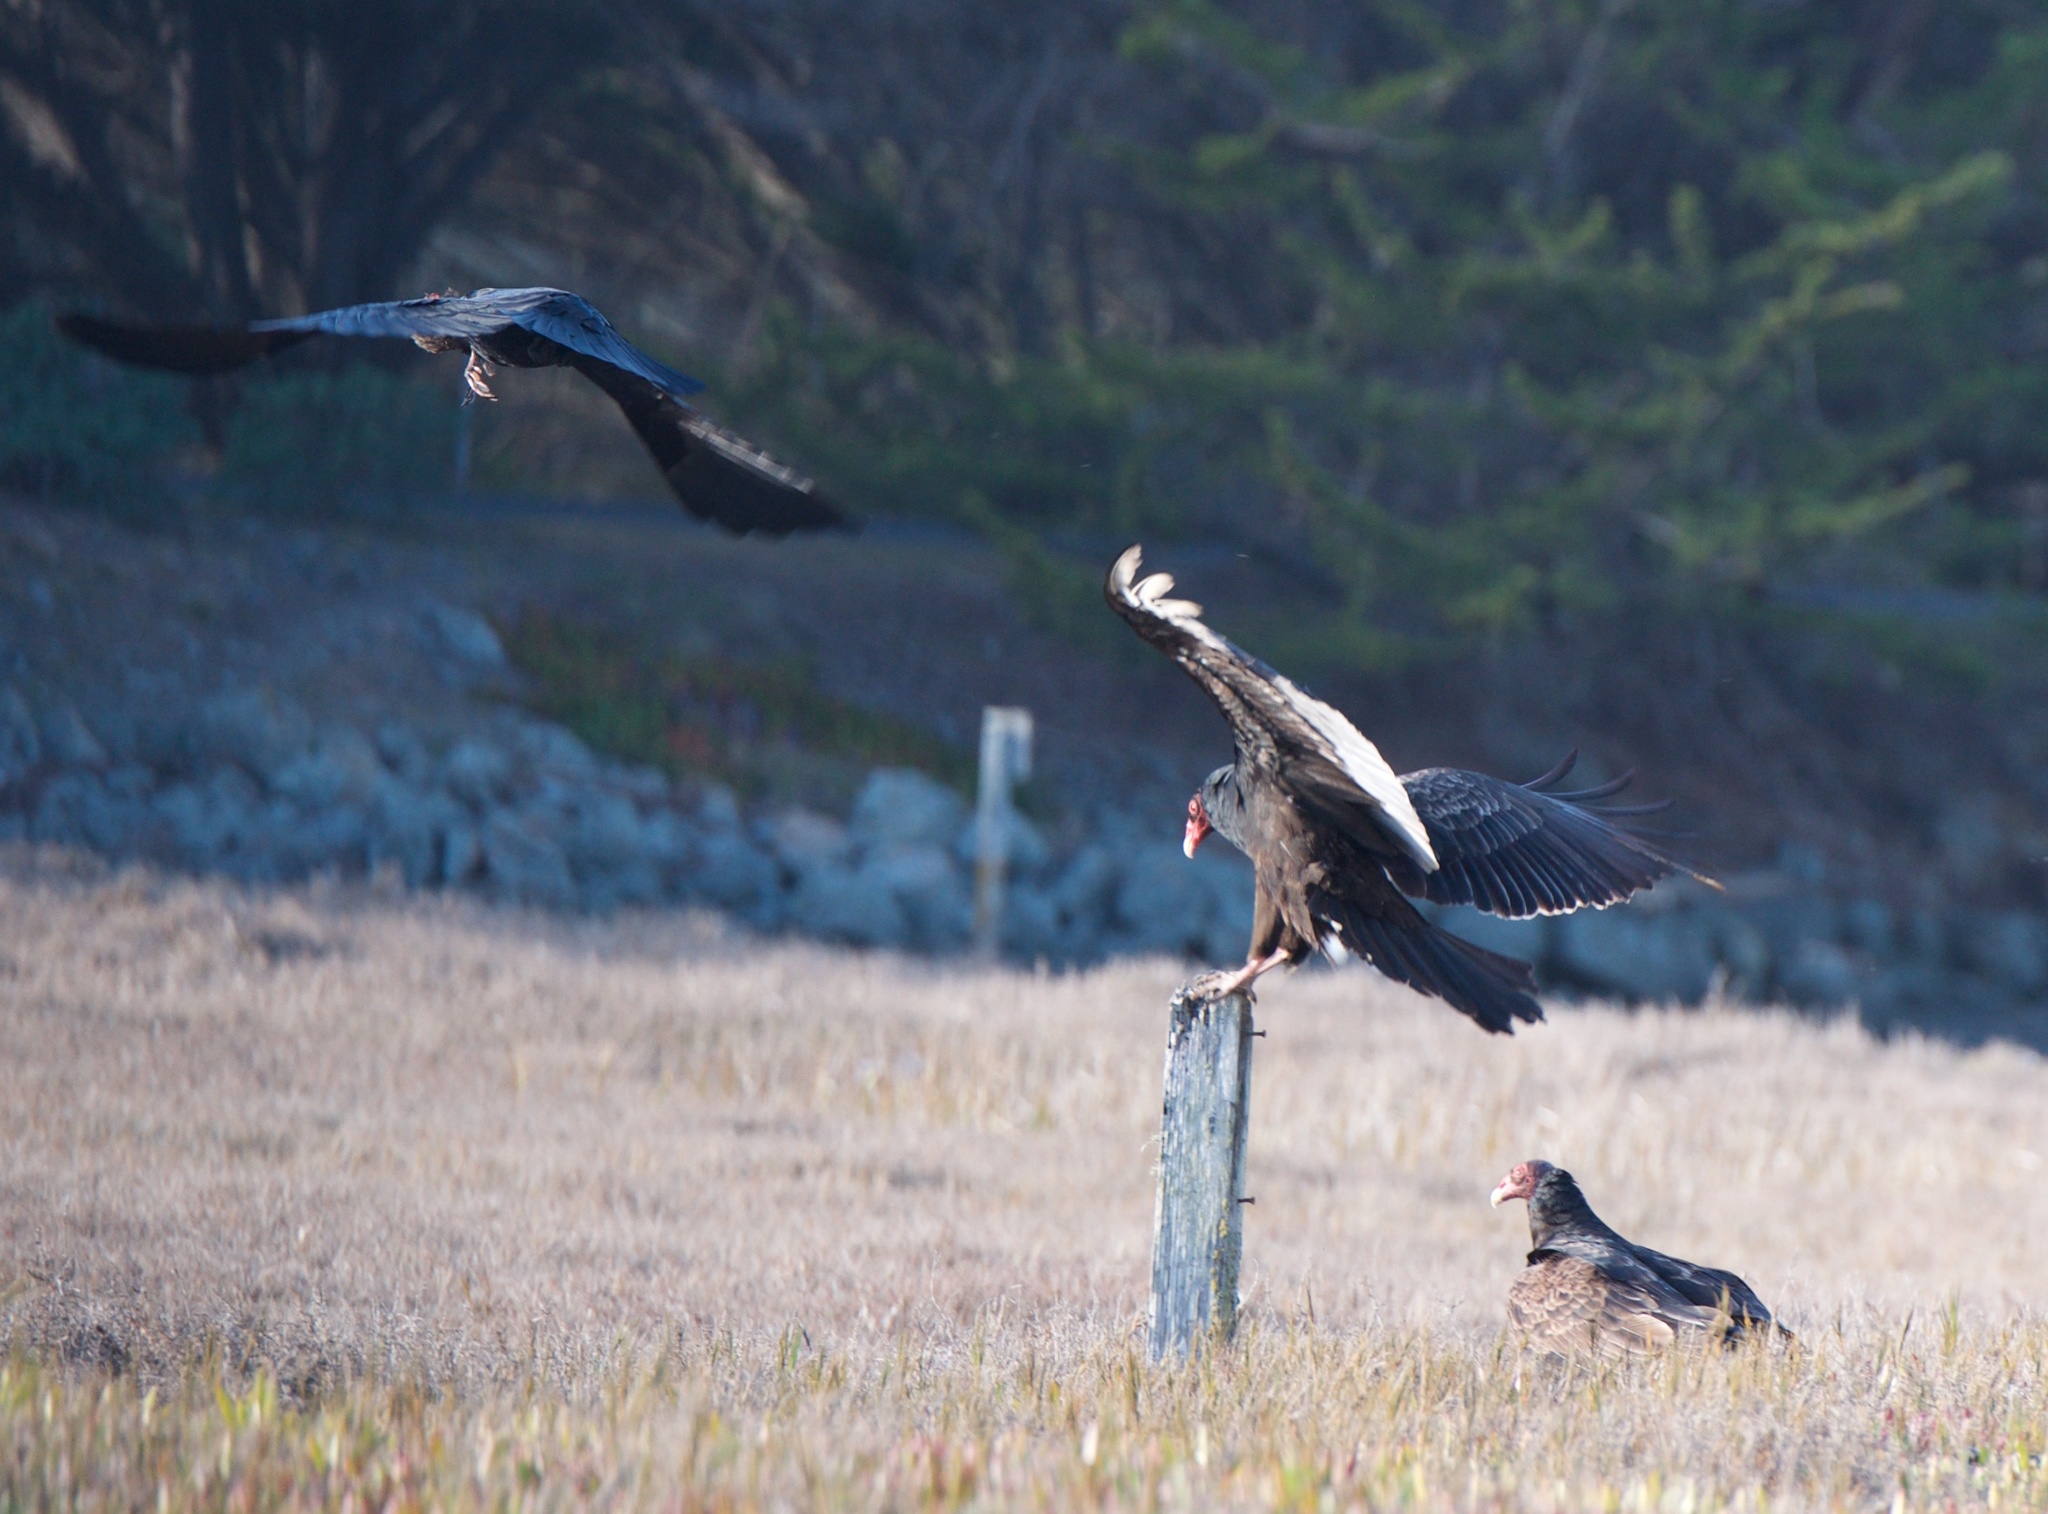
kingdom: Animalia
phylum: Chordata
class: Aves
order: Accipitriformes
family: Cathartidae
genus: Cathartes
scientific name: Cathartes aura
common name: Turkey vulture
